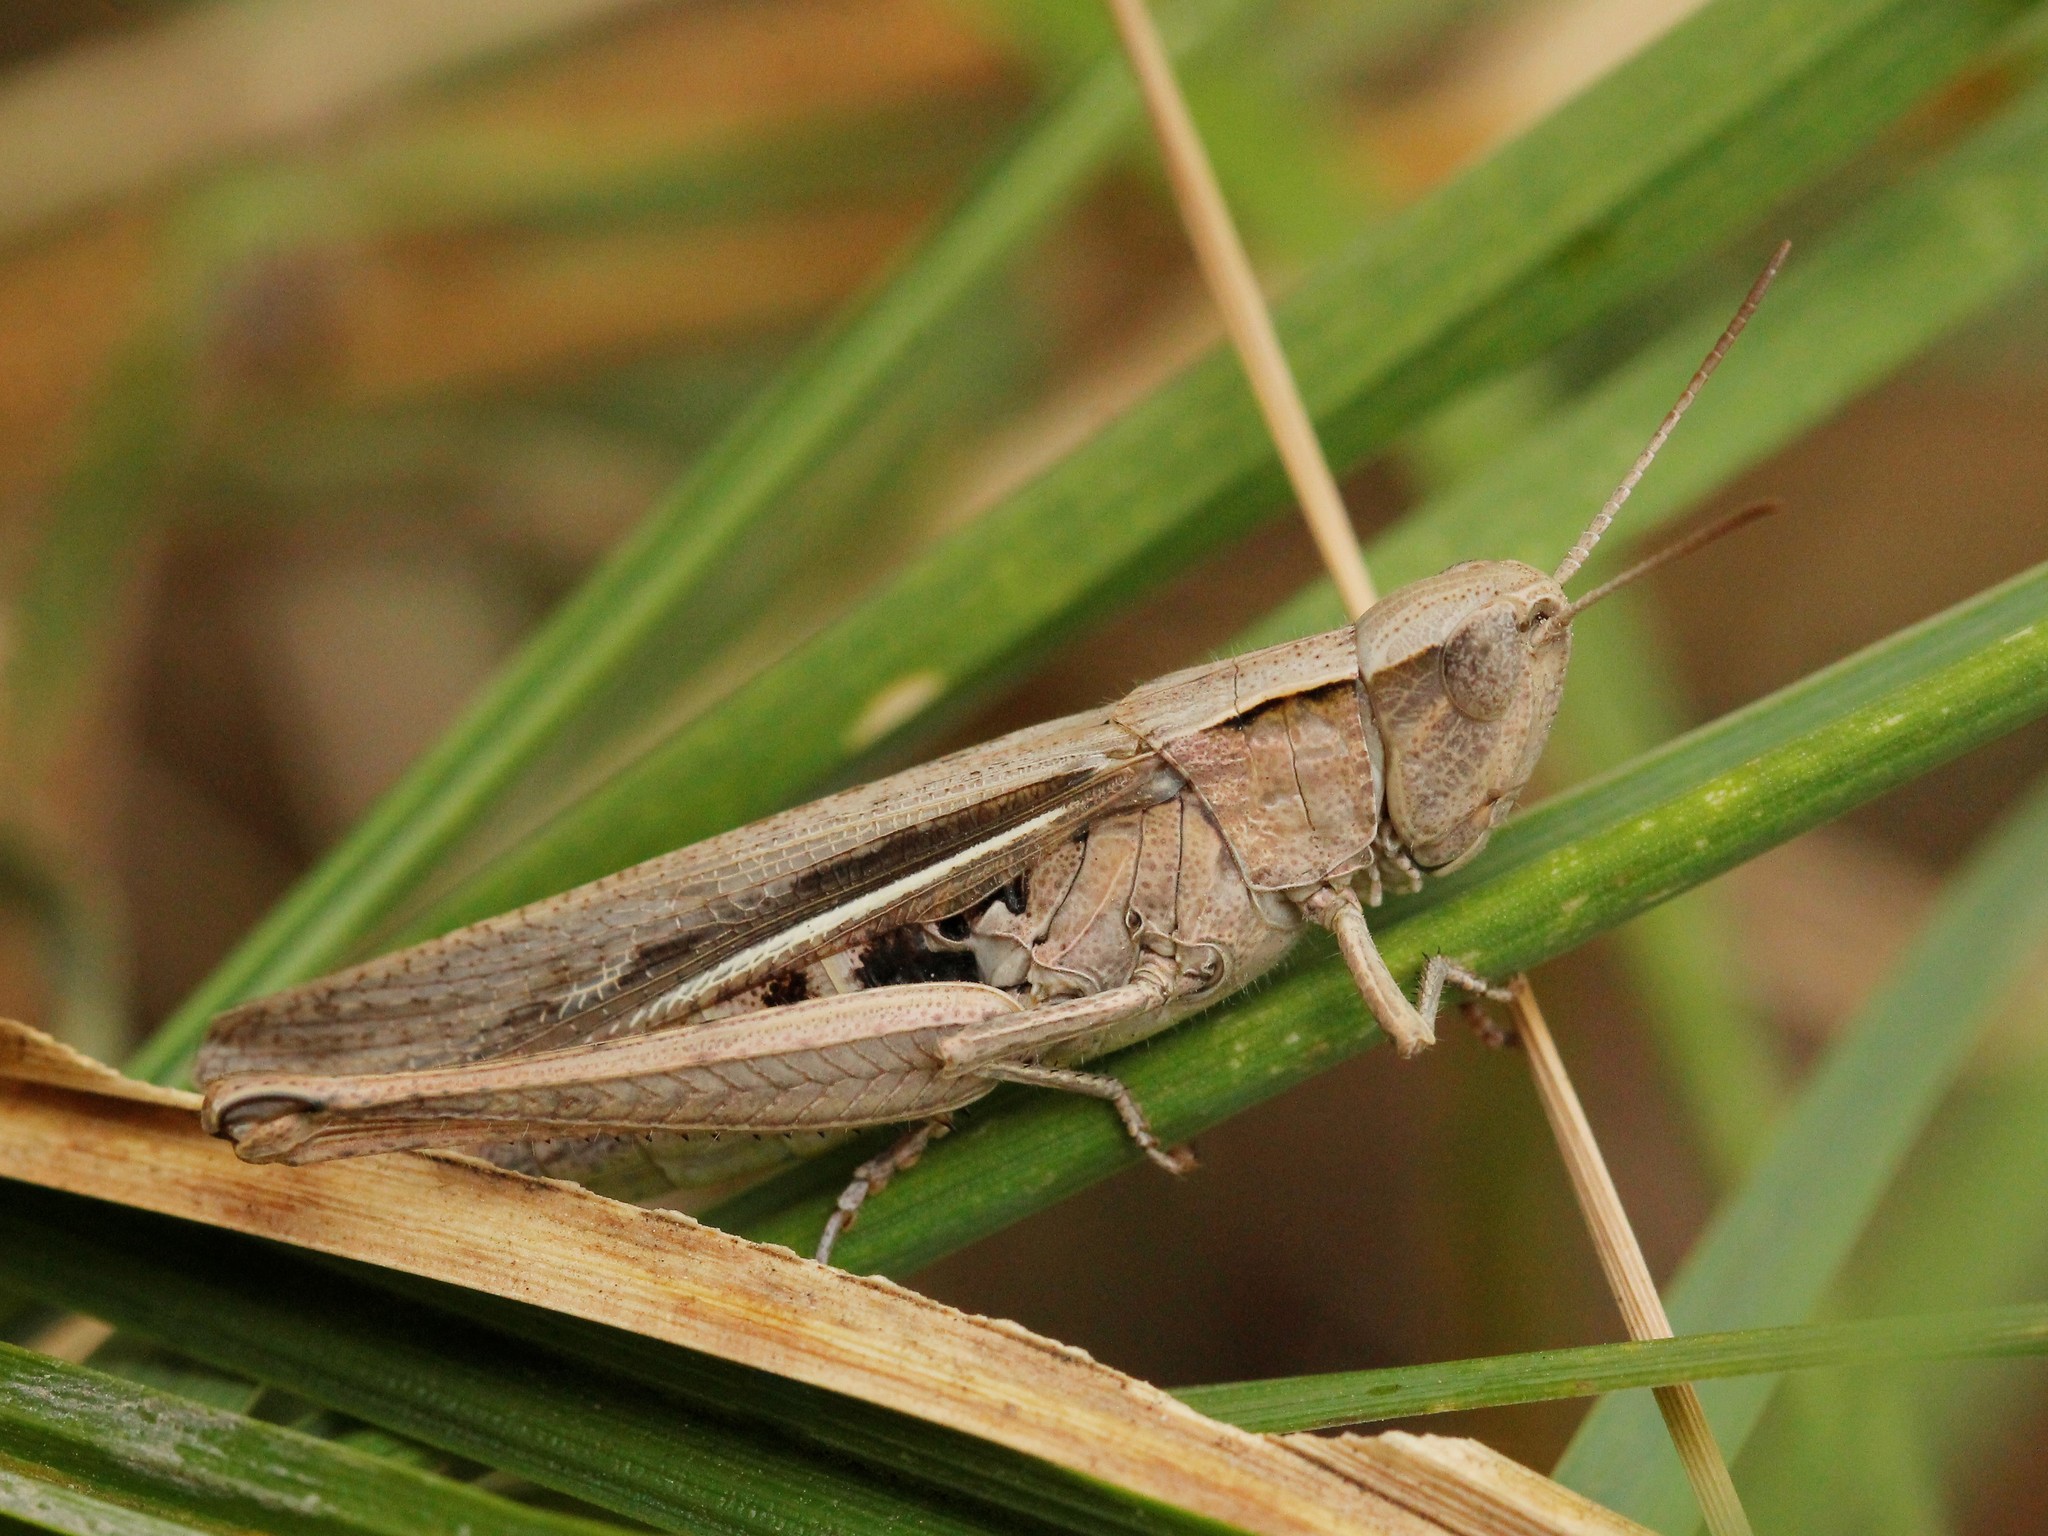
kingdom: Animalia
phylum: Arthropoda
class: Insecta
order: Orthoptera
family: Acrididae
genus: Chorthippus
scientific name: Chorthippus dichrous
